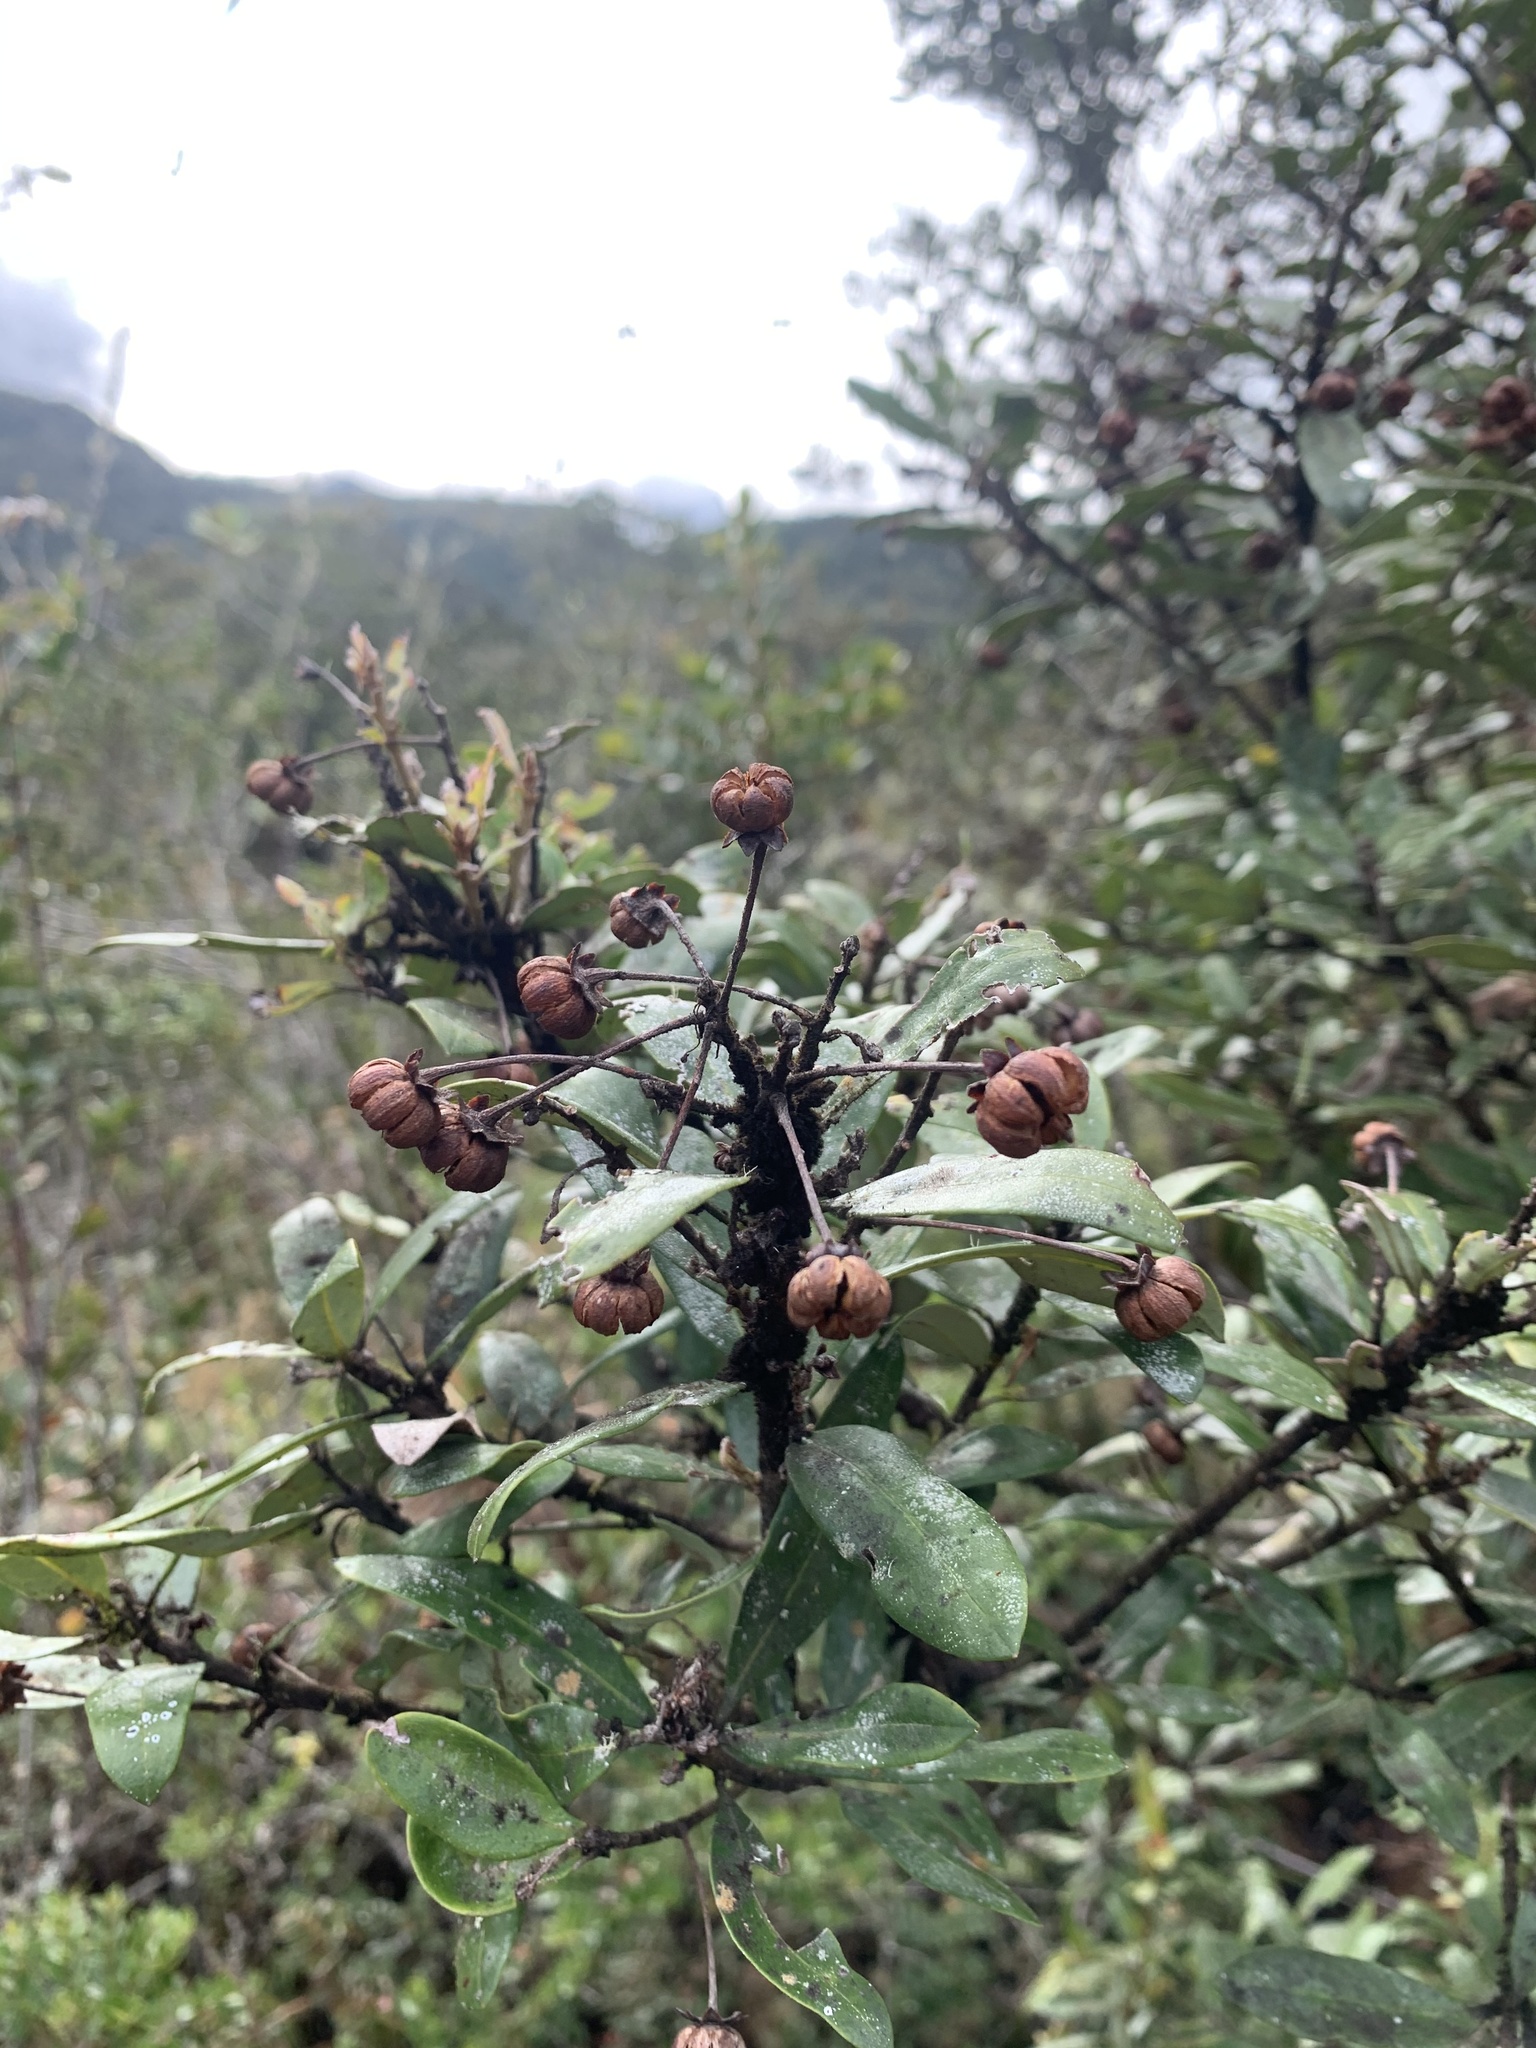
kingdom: Plantae
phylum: Tracheophyta
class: Magnoliopsida
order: Ericales
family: Ericaceae
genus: Bejaria
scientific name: Bejaria aestuans
